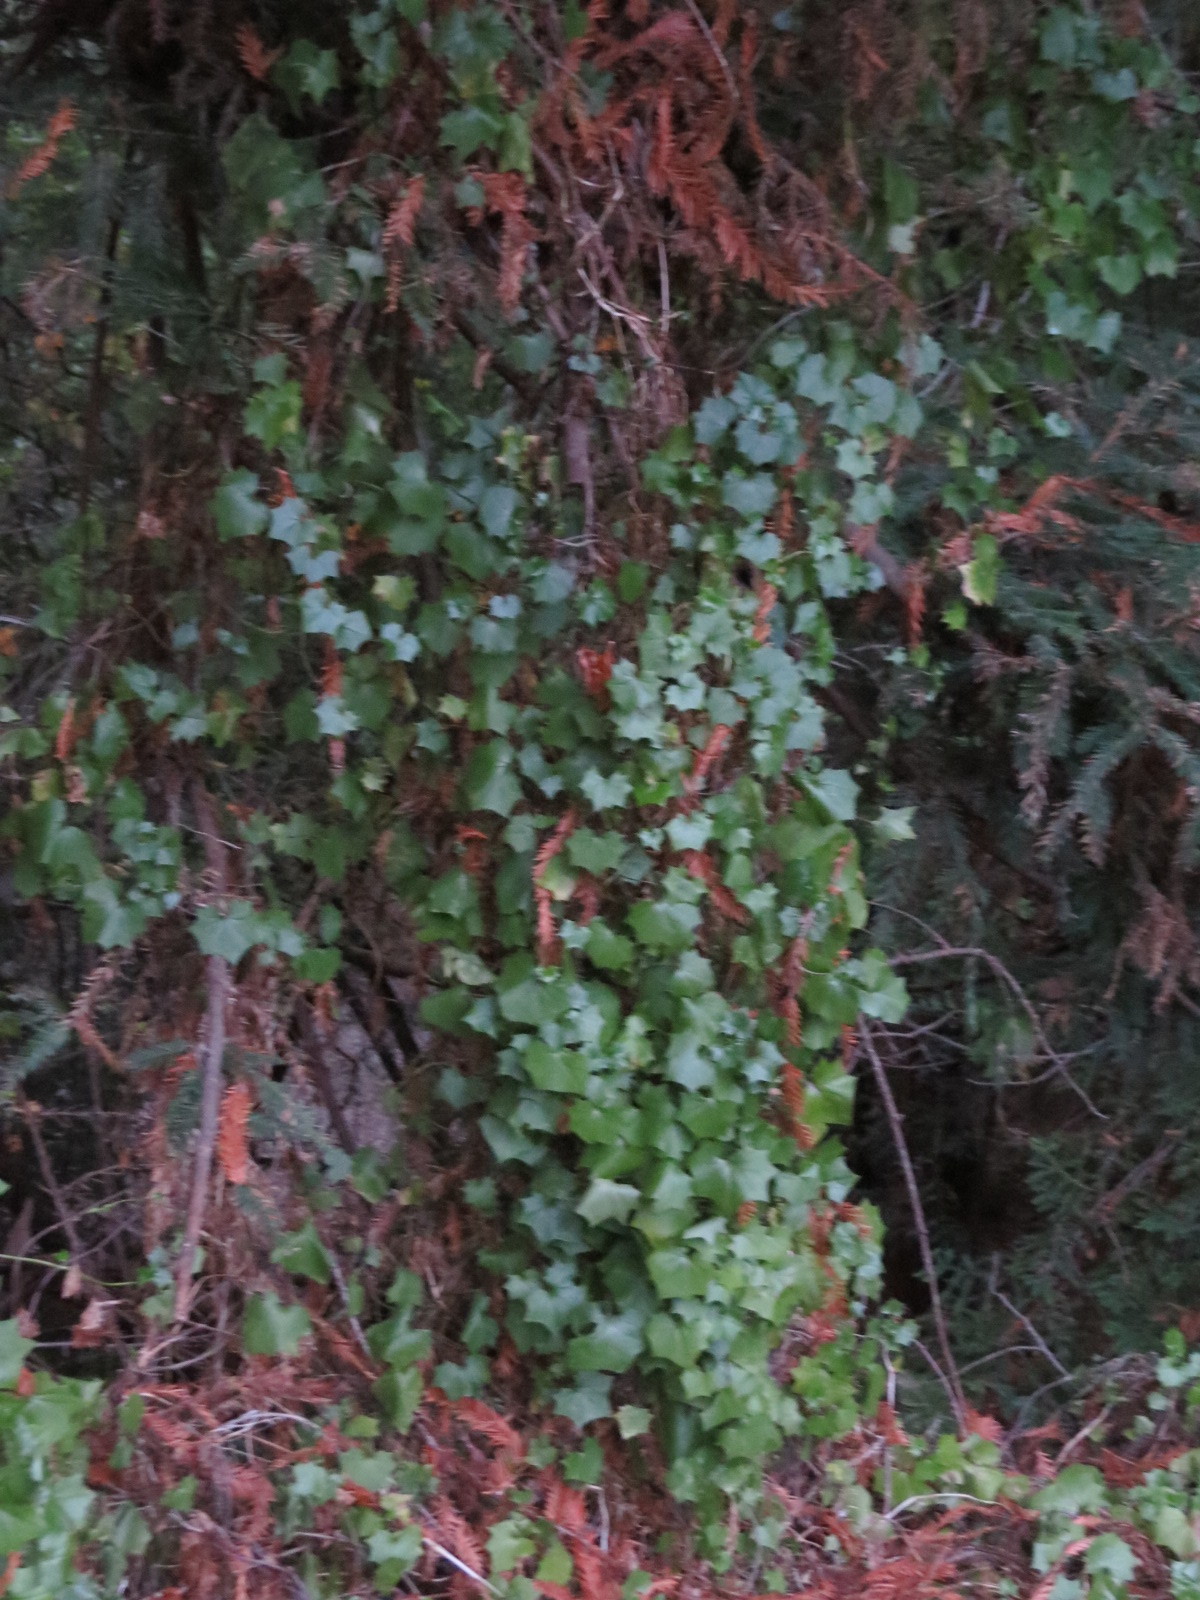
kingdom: Plantae
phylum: Tracheophyta
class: Magnoliopsida
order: Asterales
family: Asteraceae
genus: Delairea
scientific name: Delairea odorata
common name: Cape-ivy
